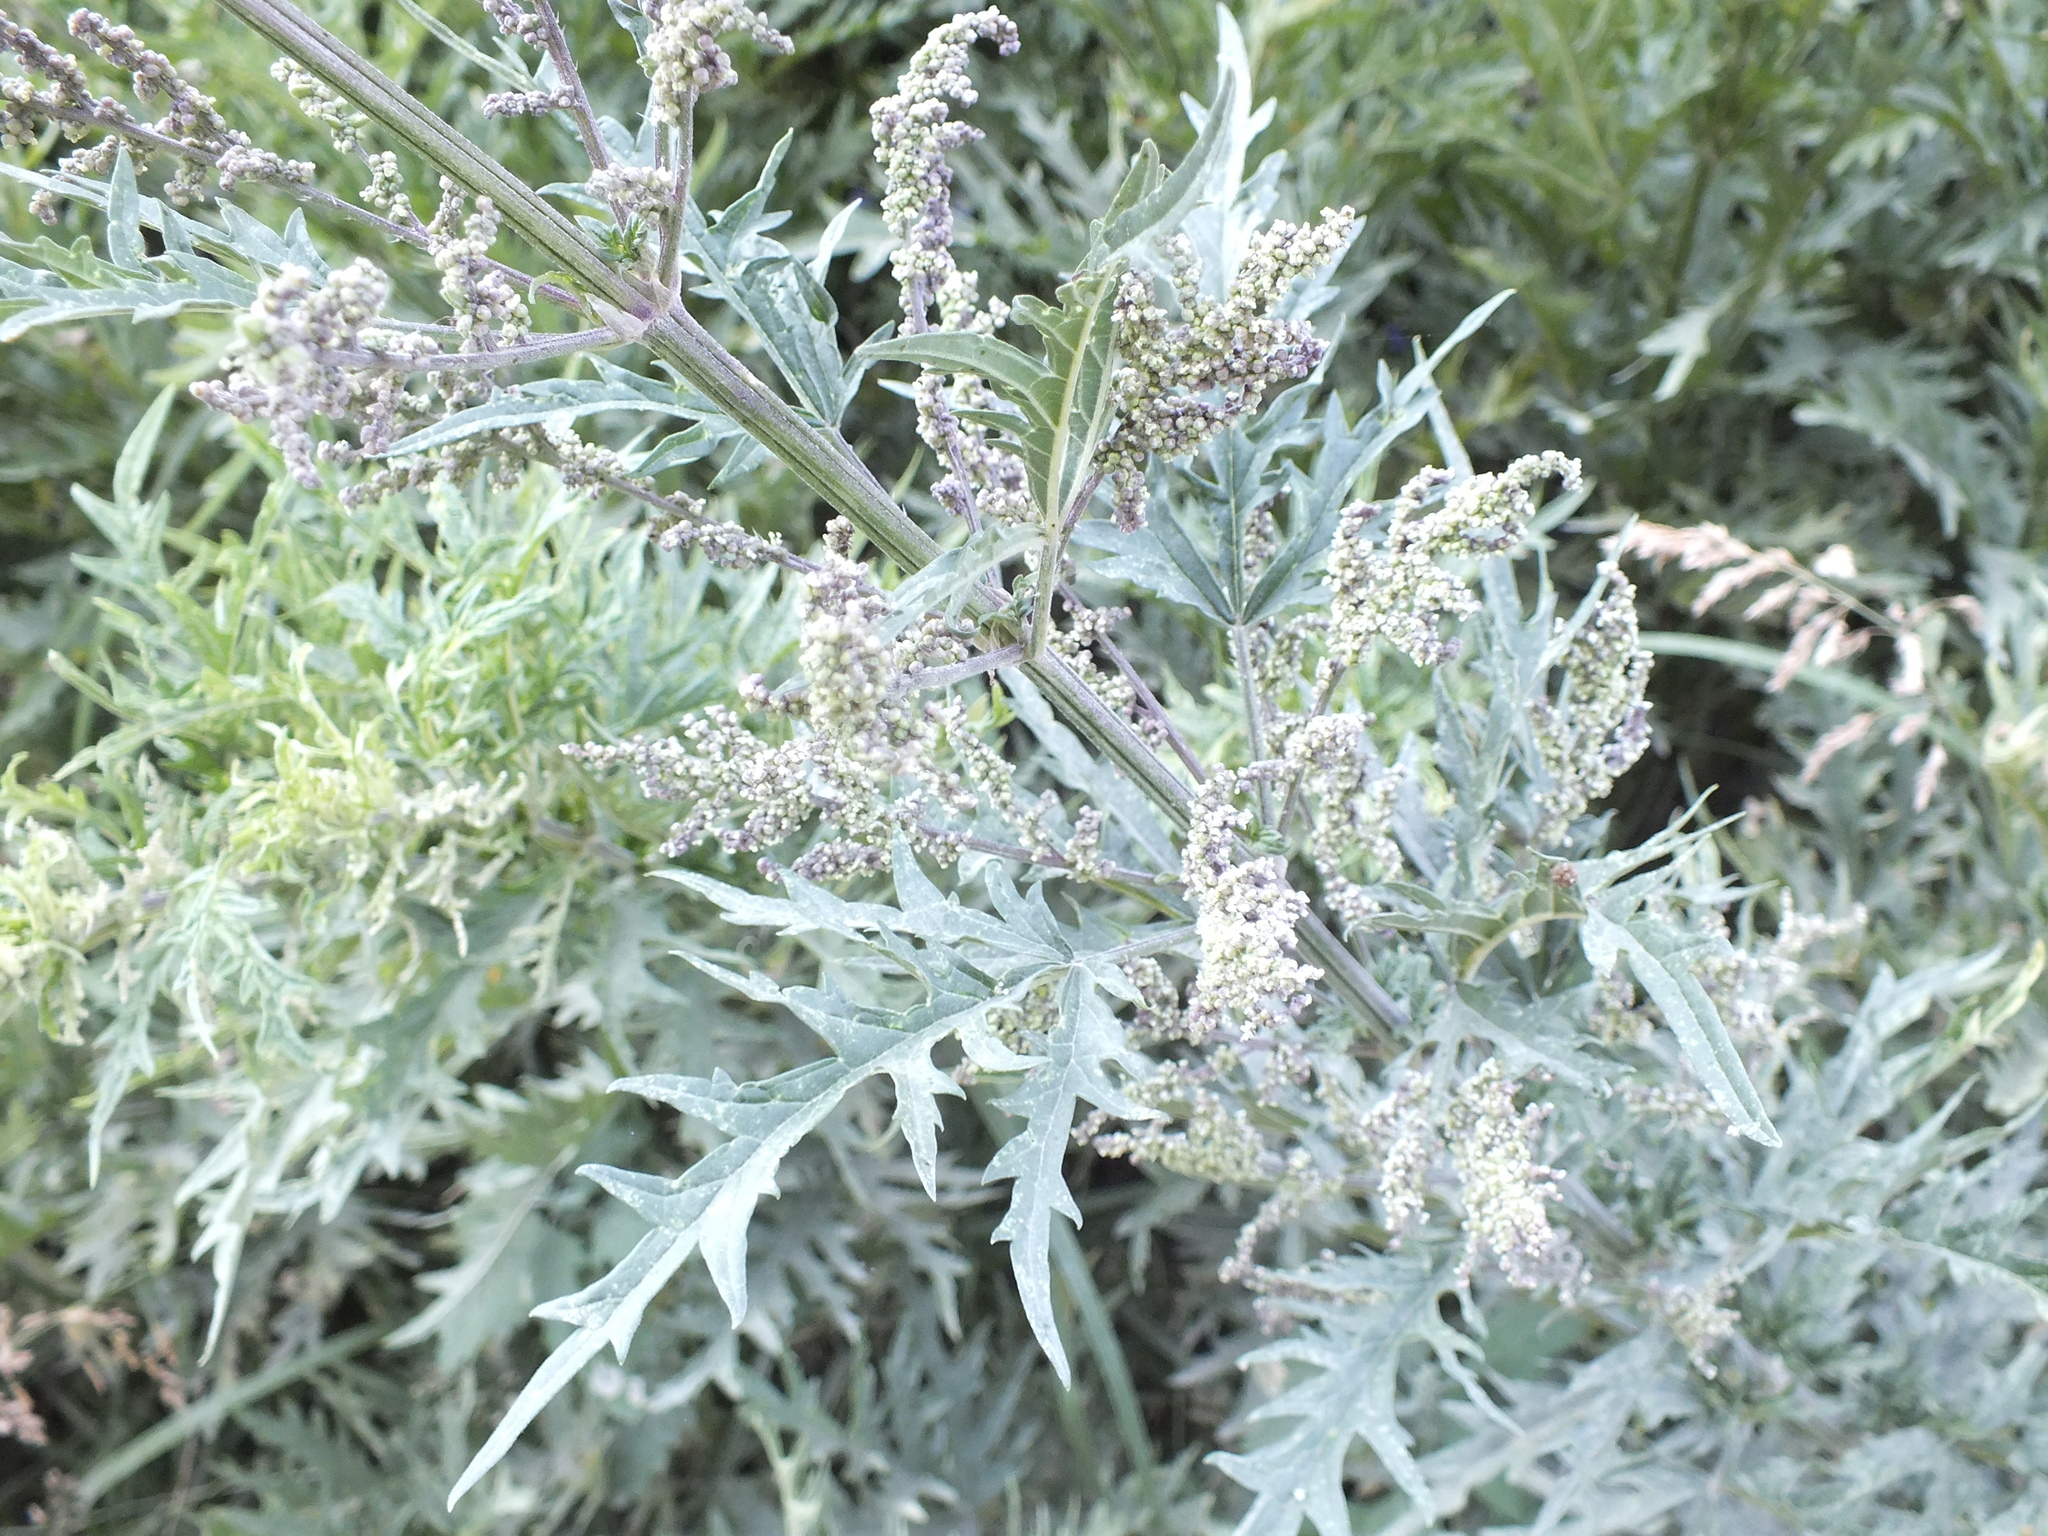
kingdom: Plantae
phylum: Tracheophyta
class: Magnoliopsida
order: Rosales
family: Urticaceae
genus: Urtica
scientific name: Urtica cannabina
